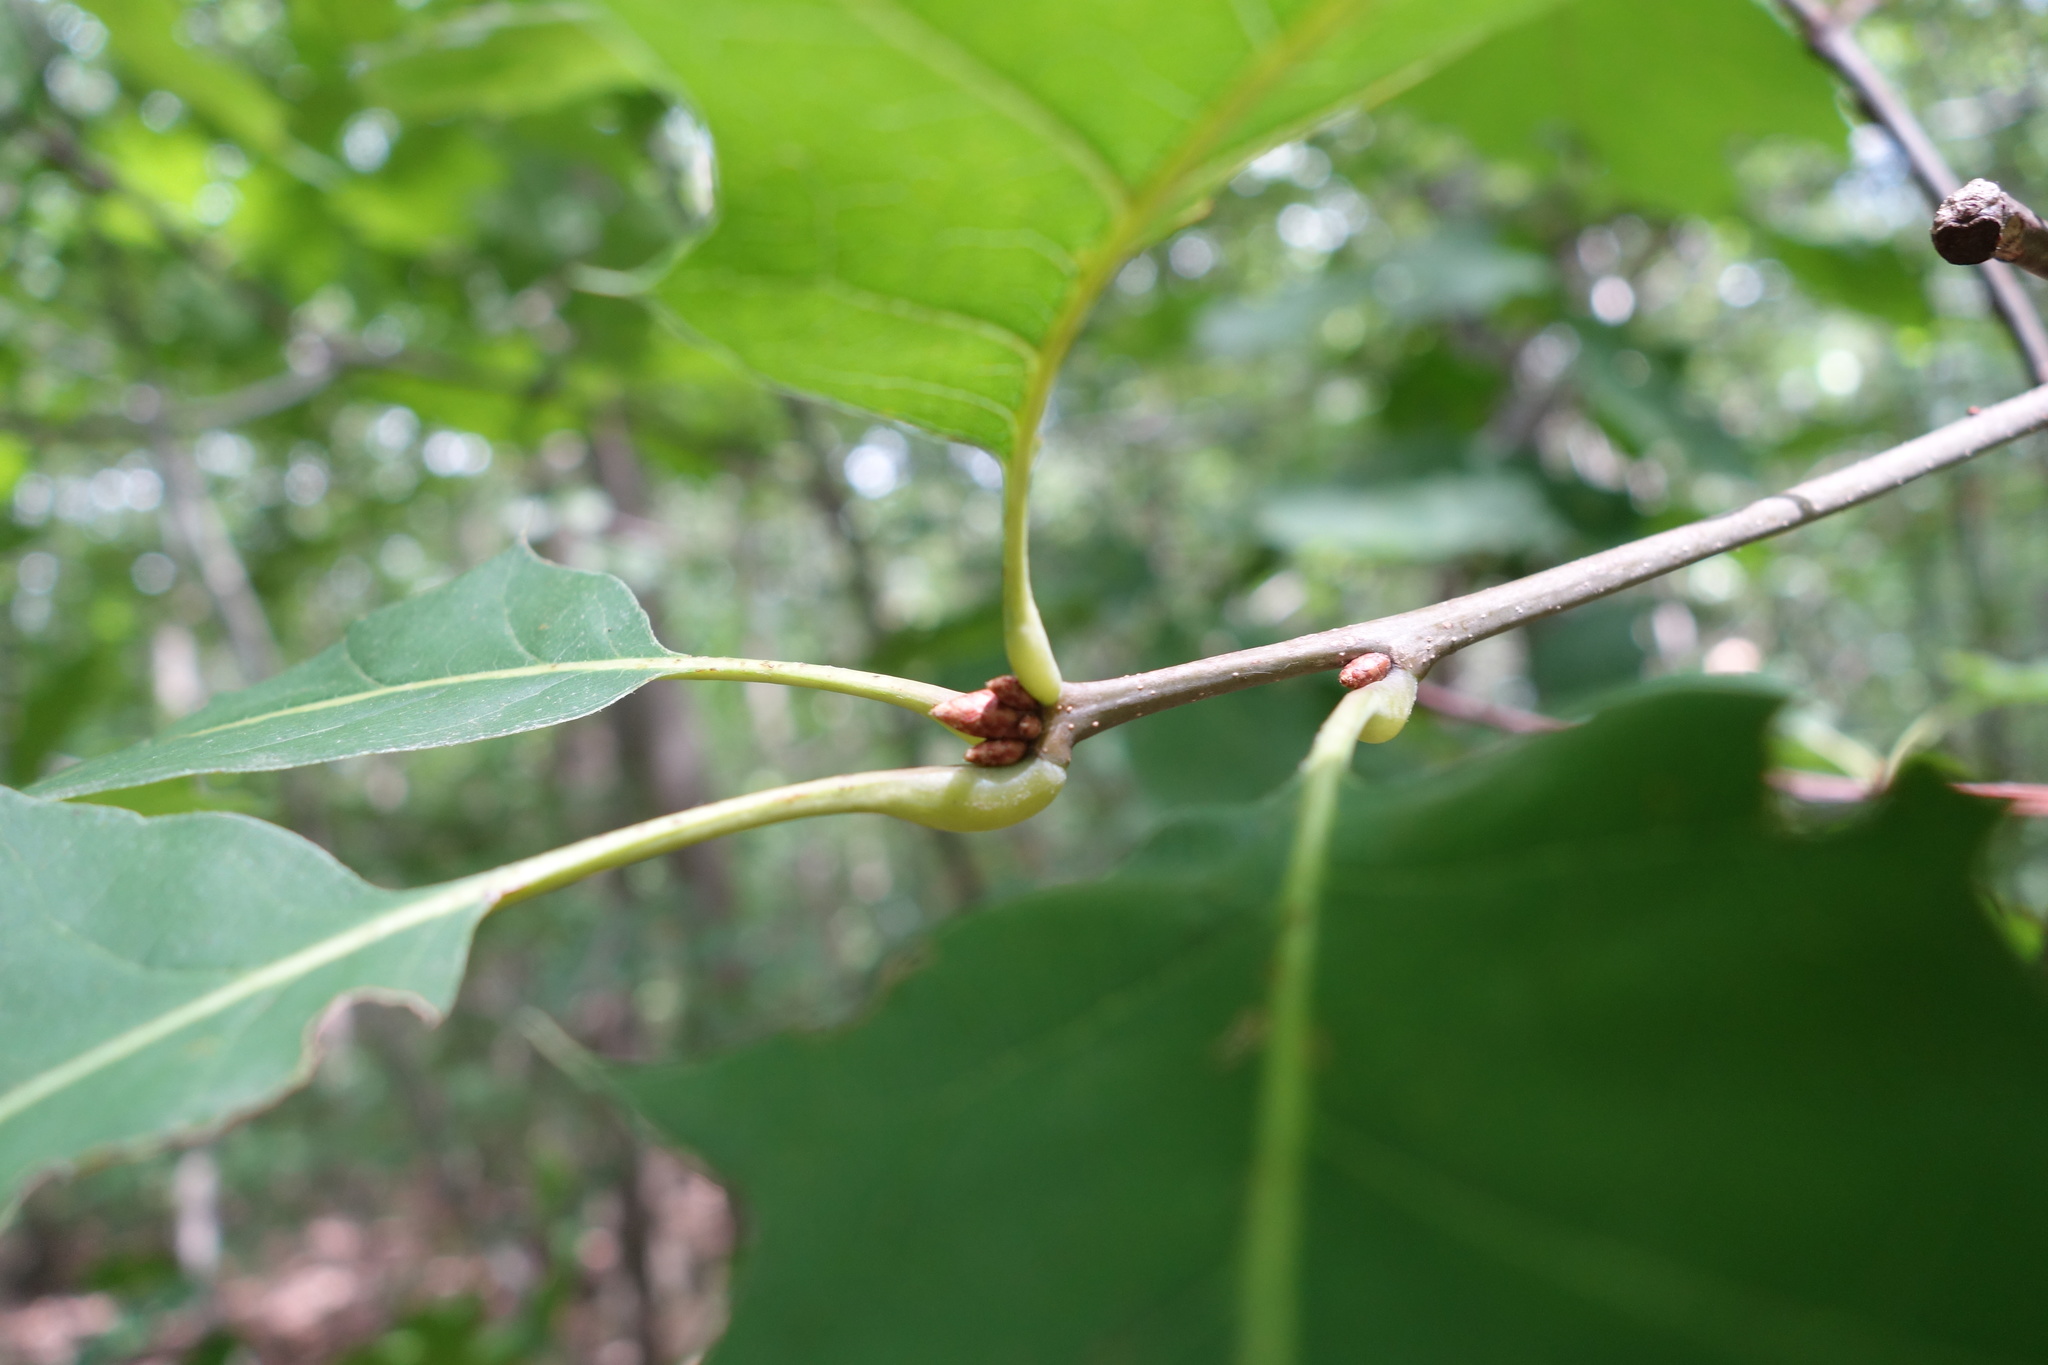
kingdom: Plantae
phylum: Tracheophyta
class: Magnoliopsida
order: Fagales
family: Fagaceae
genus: Quercus
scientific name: Quercus rubra
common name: Red oak
